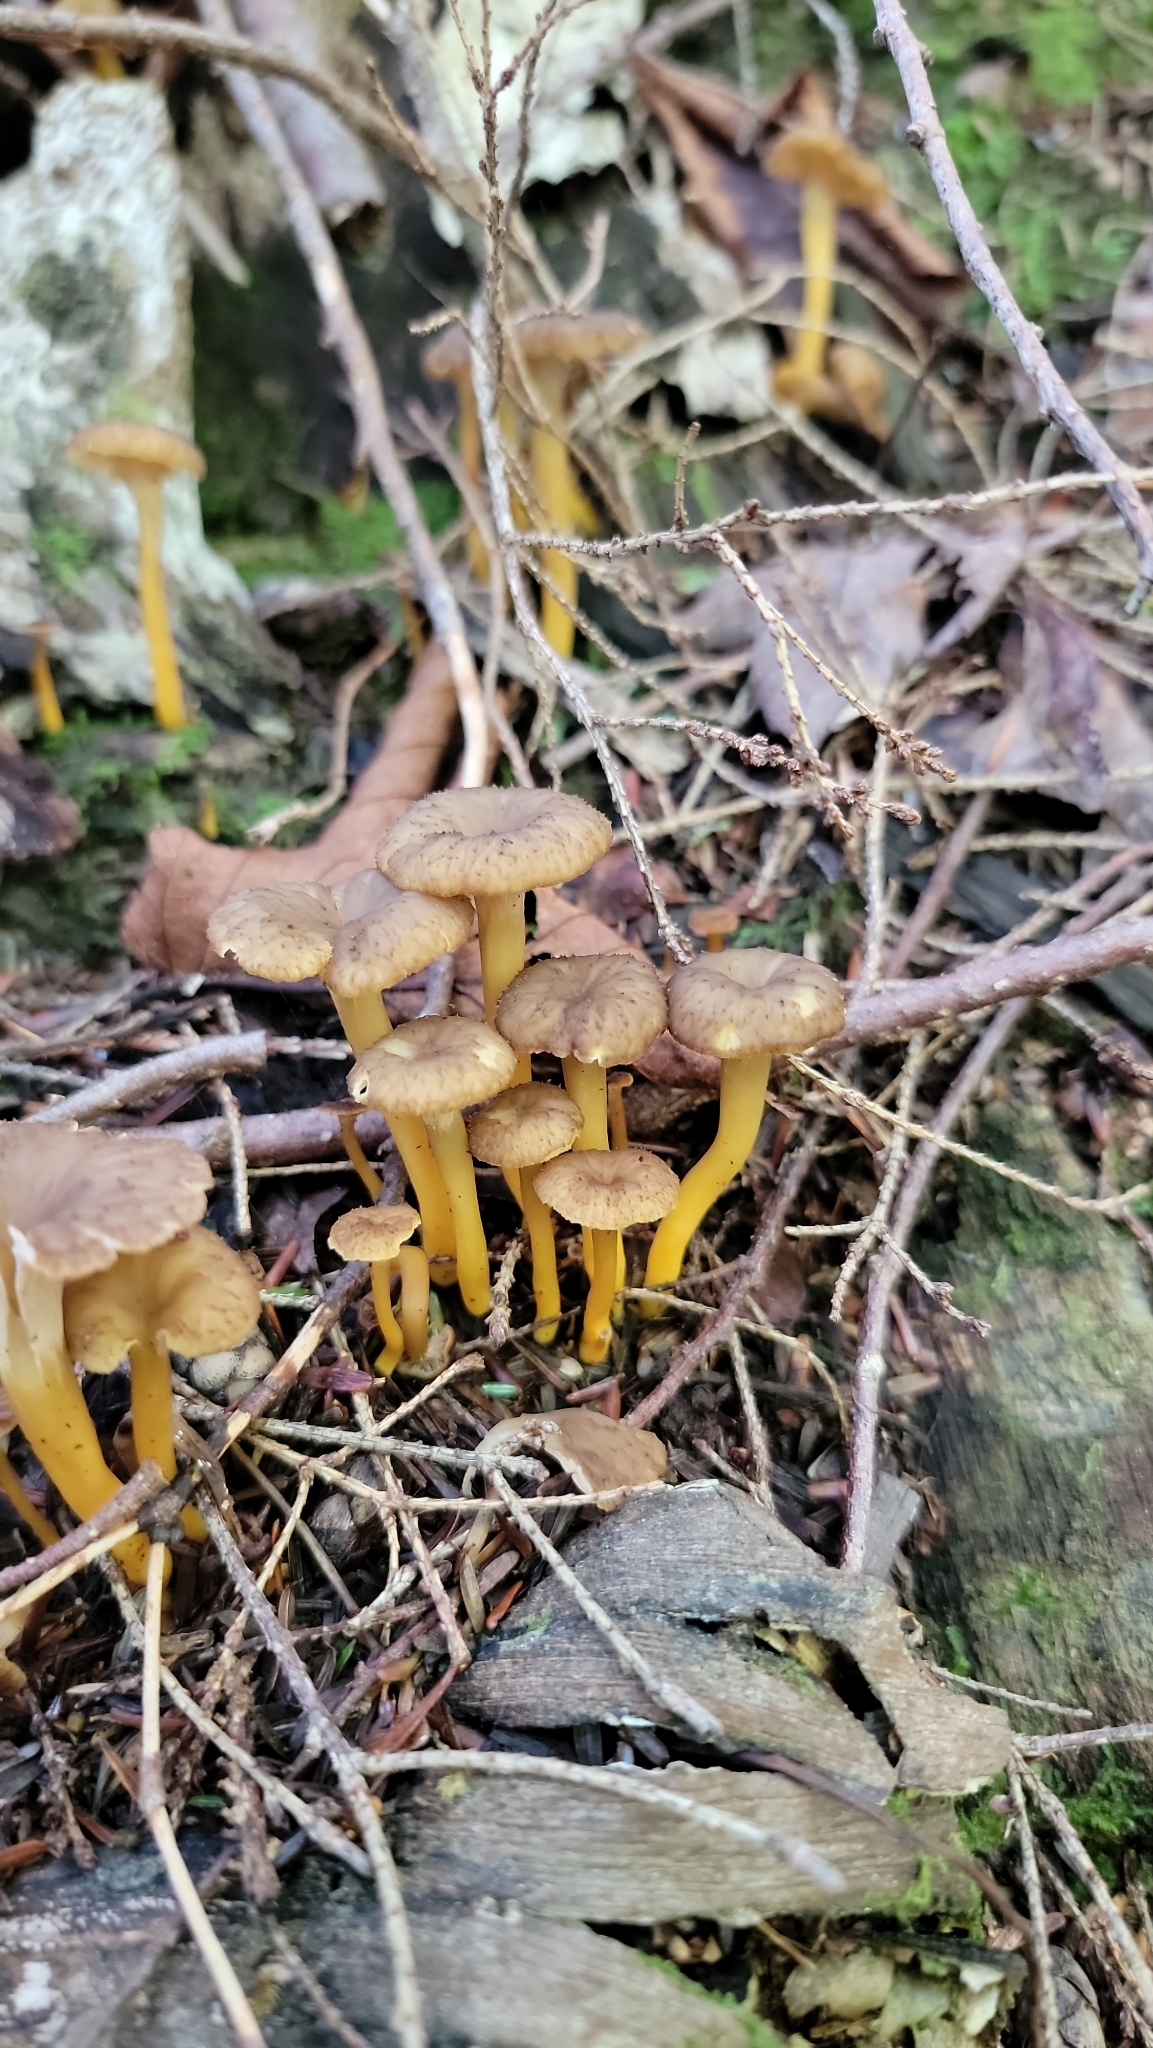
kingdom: Fungi
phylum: Basidiomycota
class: Agaricomycetes
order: Cantharellales
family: Hydnaceae
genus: Craterellus
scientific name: Craterellus tubaeformis
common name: Yellowfoot
